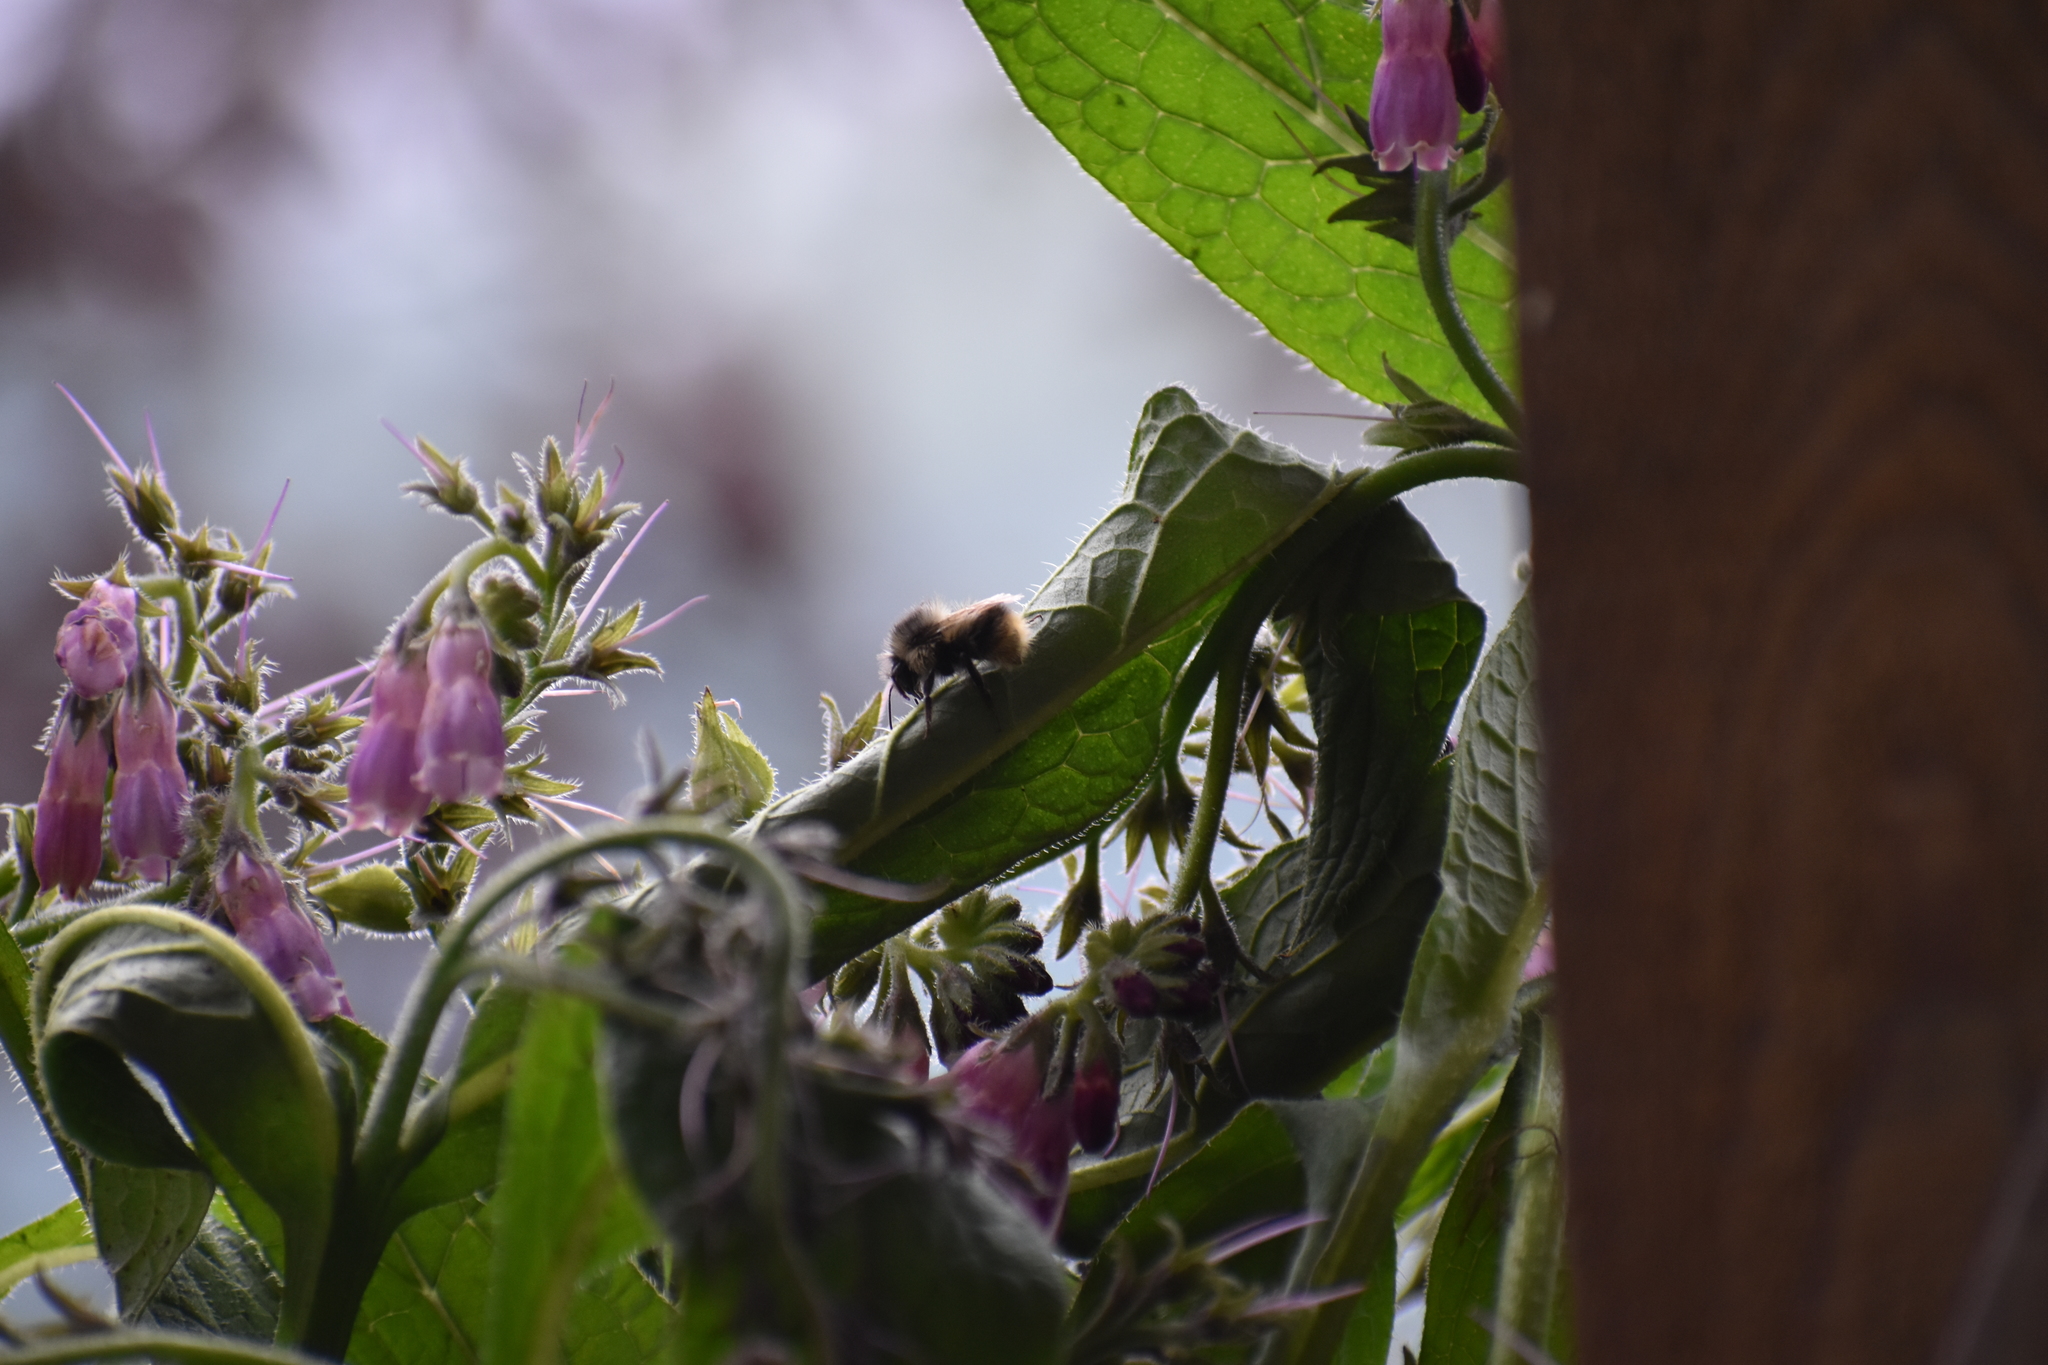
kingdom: Plantae
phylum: Tracheophyta
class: Magnoliopsida
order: Boraginales
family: Boraginaceae
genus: Symphytum
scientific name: Symphytum officinale
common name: Common comfrey
